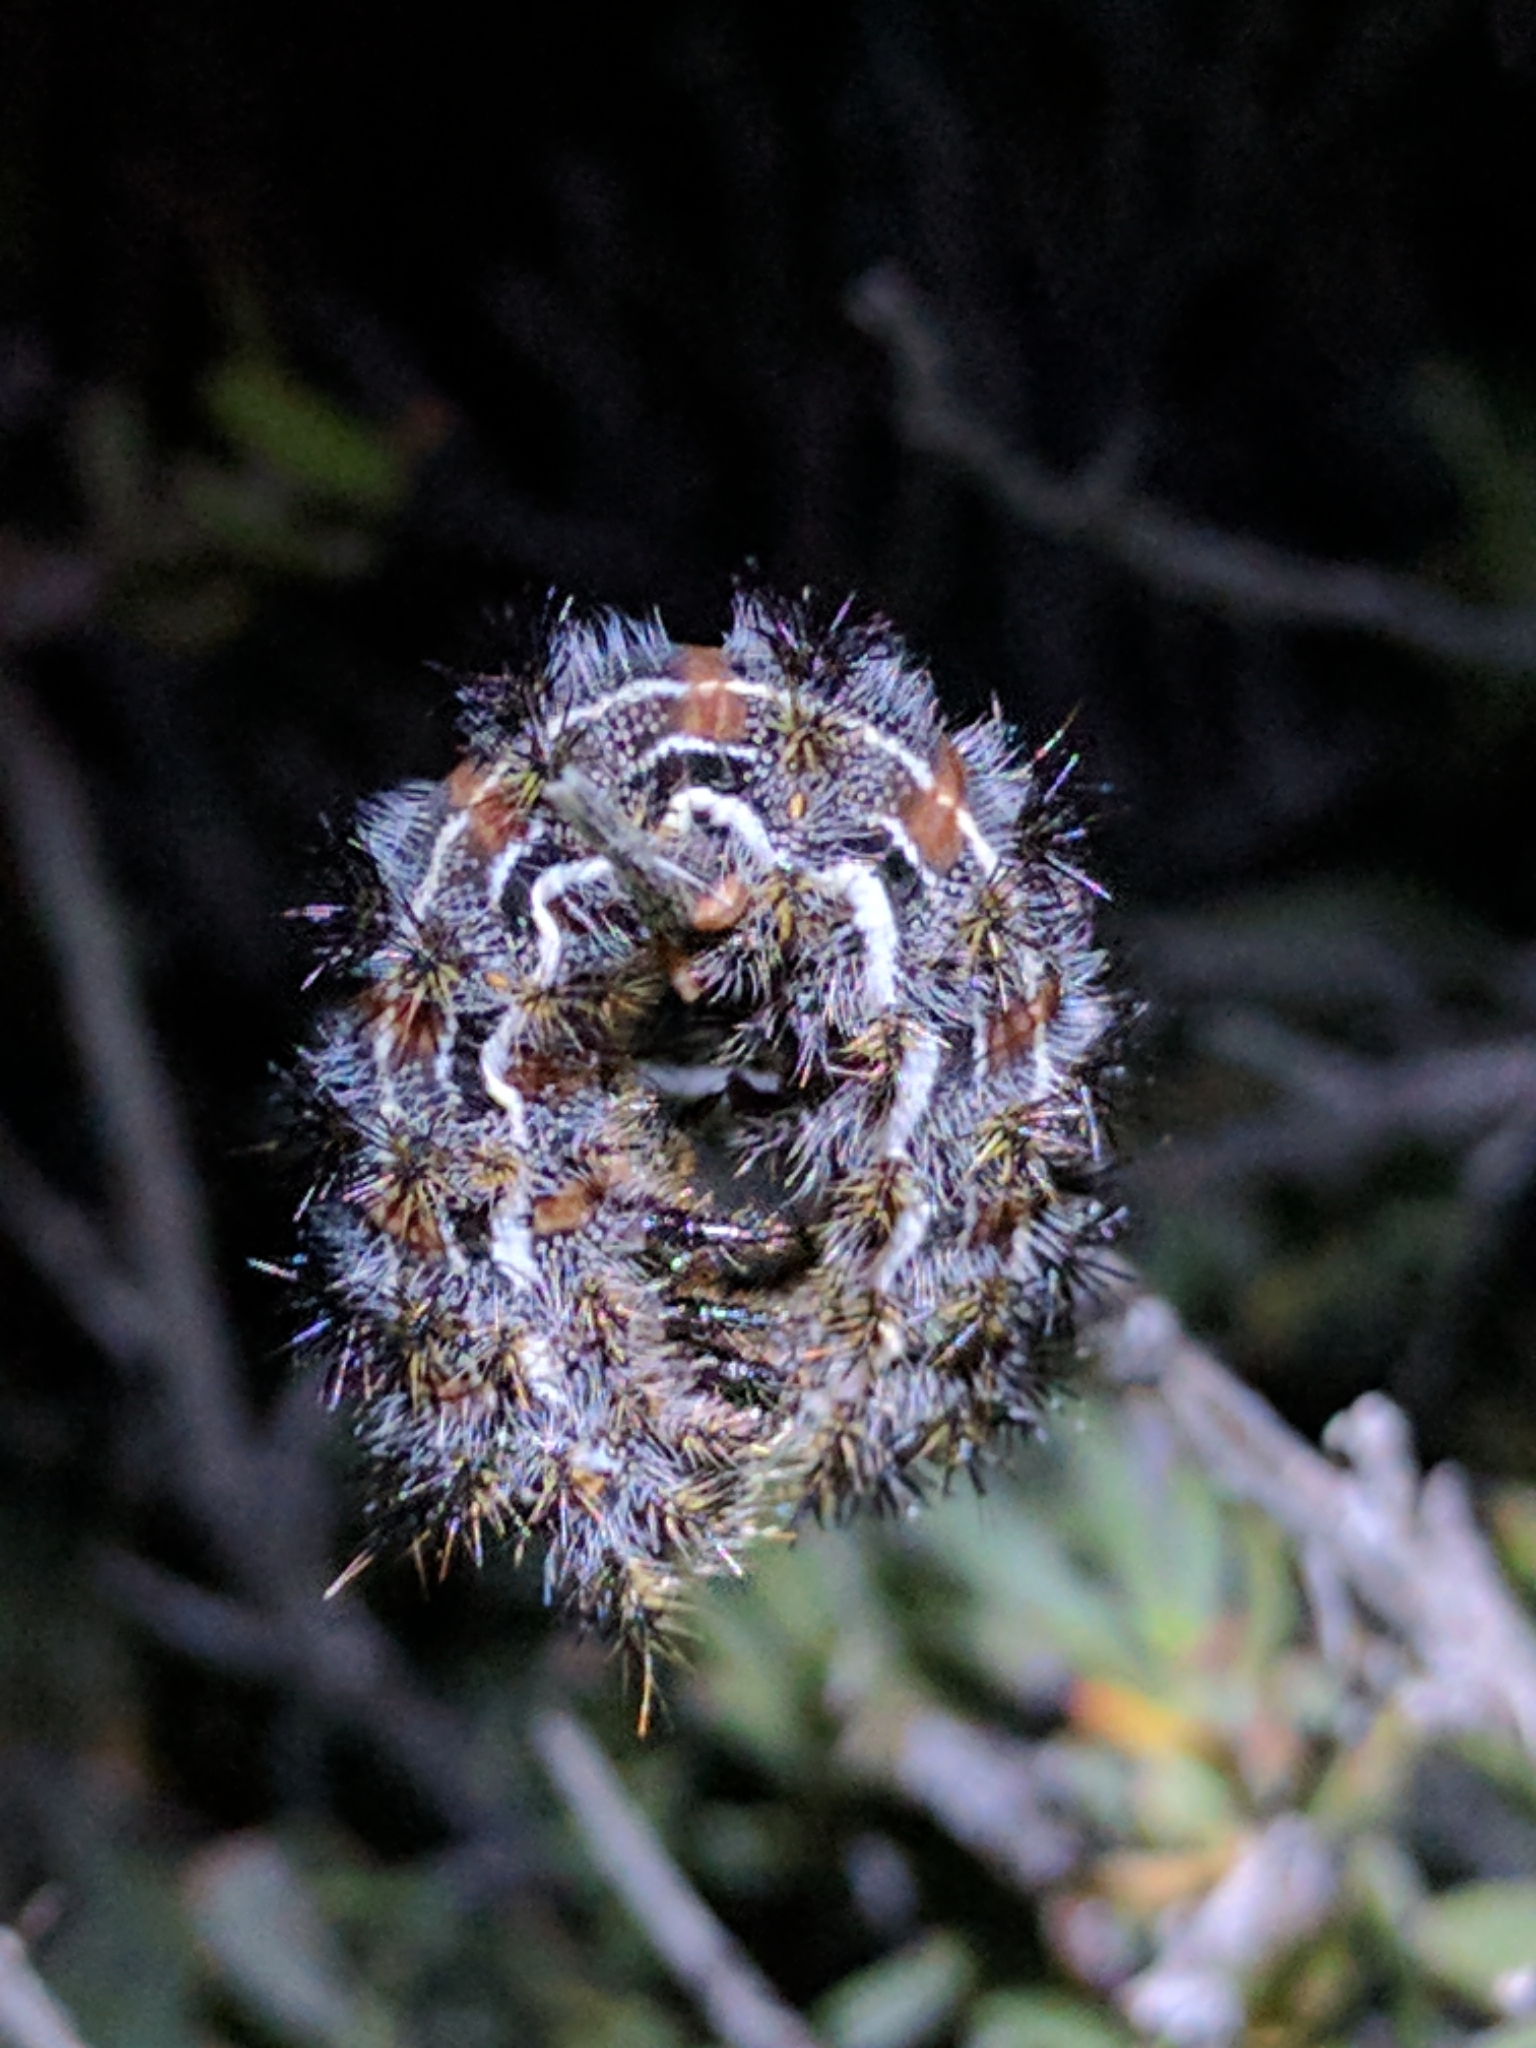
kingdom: Animalia
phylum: Arthropoda
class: Insecta
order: Lepidoptera
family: Saturniidae
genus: Hemileuca
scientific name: Hemileuca electra
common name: Electra buckmoth
